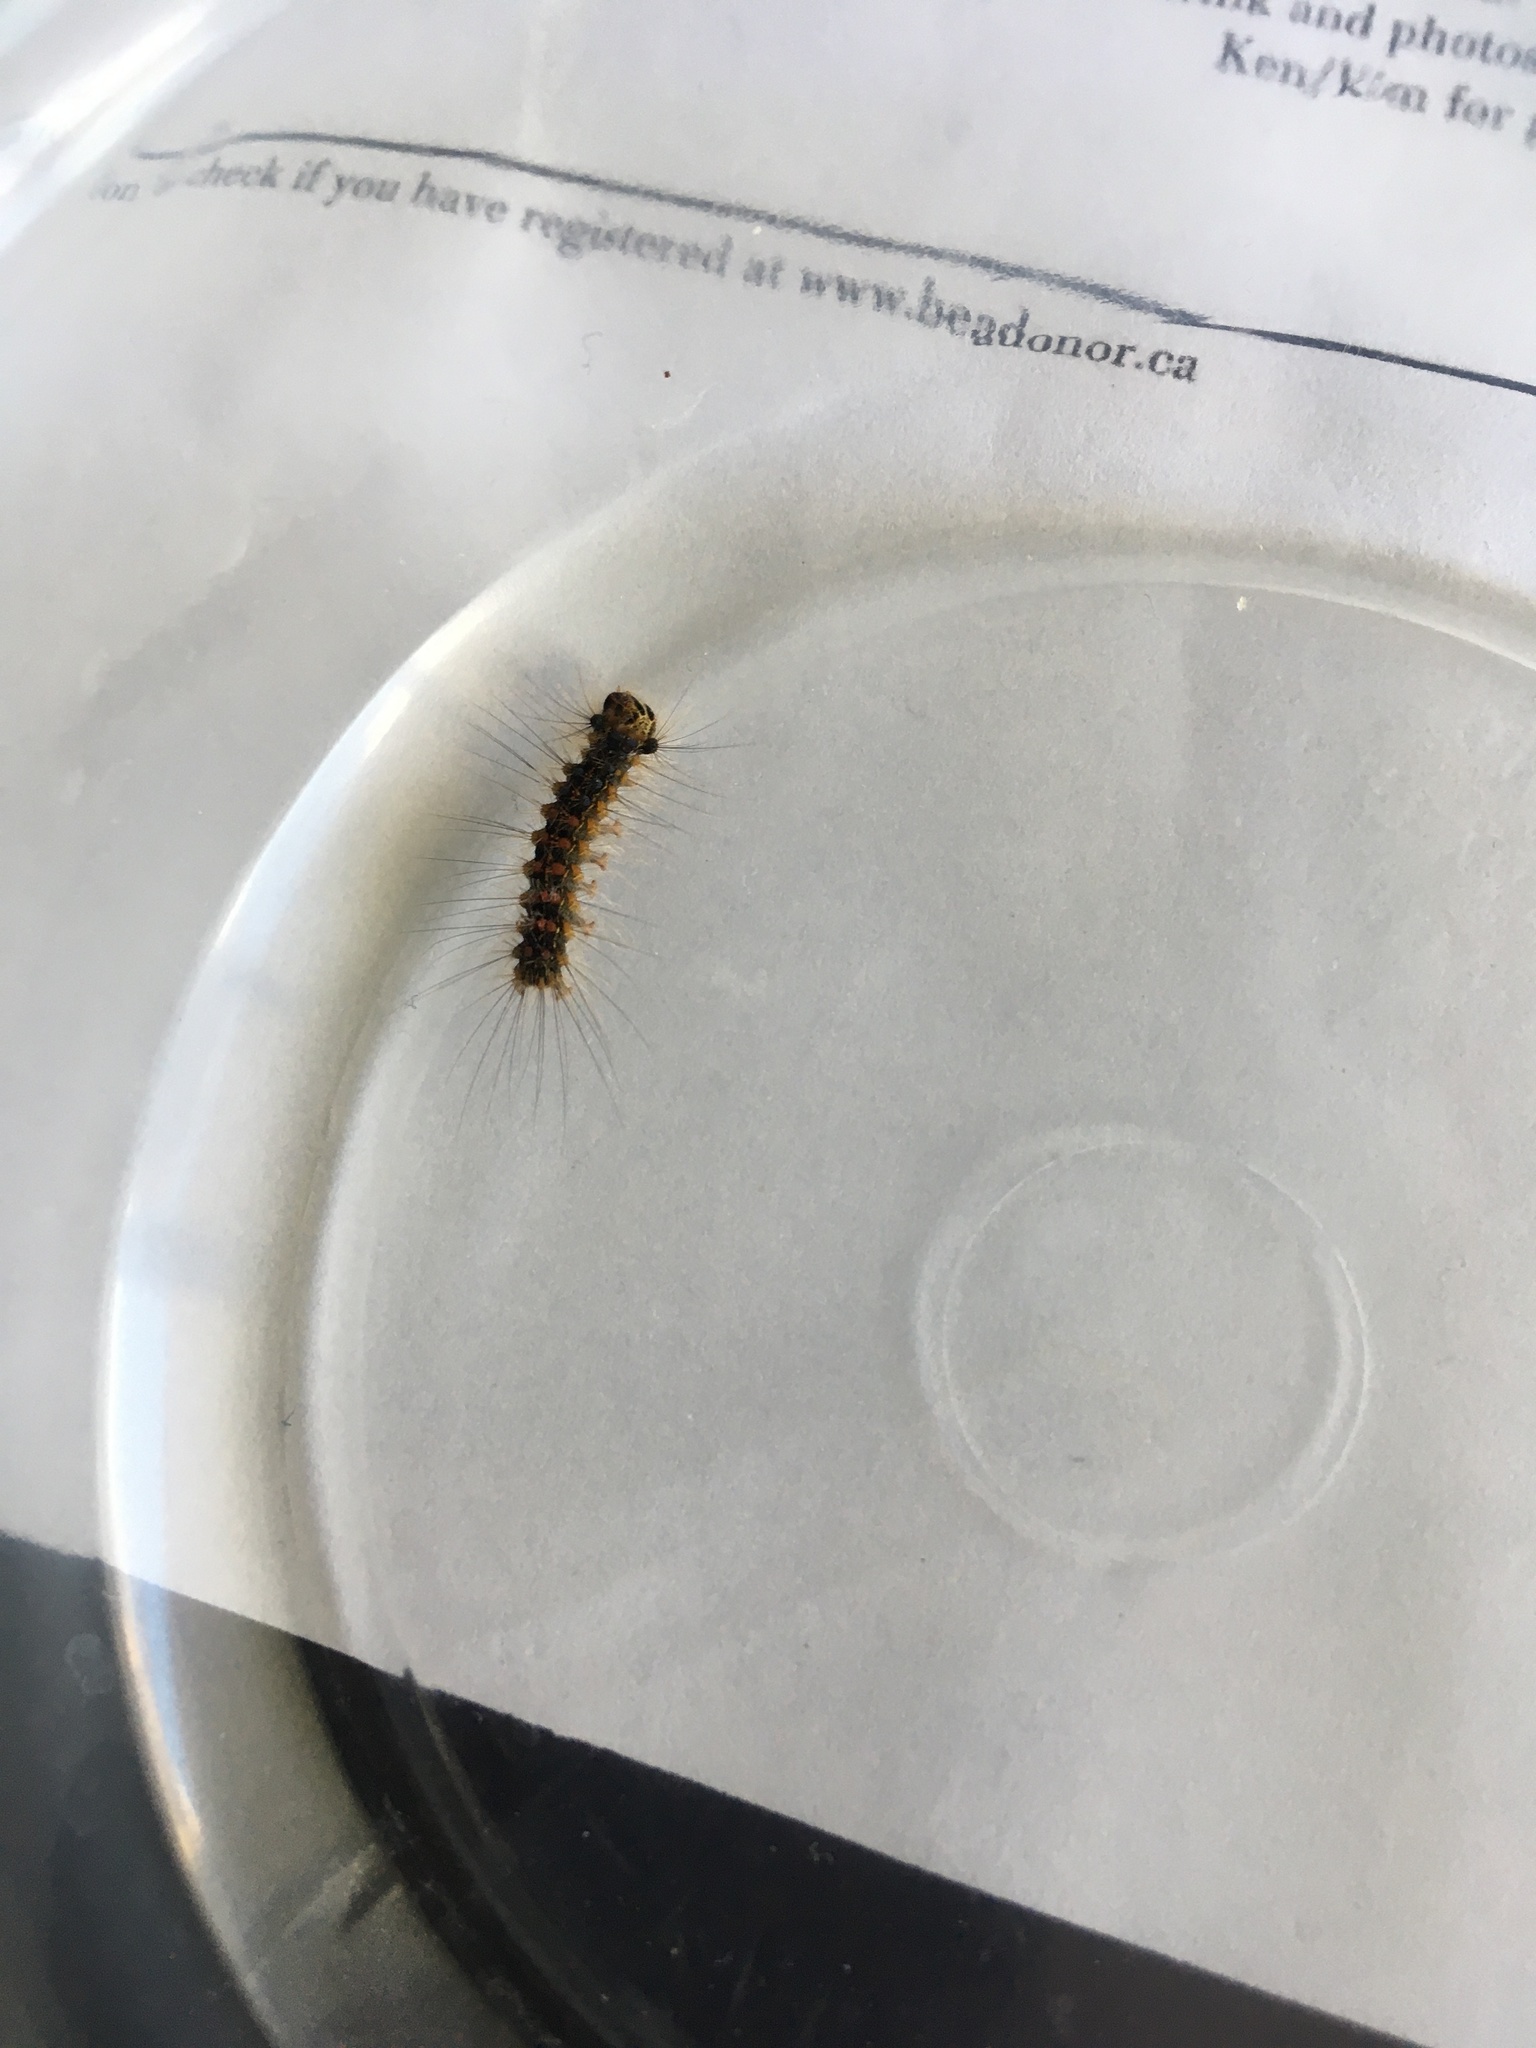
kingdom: Animalia
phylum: Arthropoda
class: Insecta
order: Lepidoptera
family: Erebidae
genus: Lymantria
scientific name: Lymantria dispar
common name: Gypsy moth
